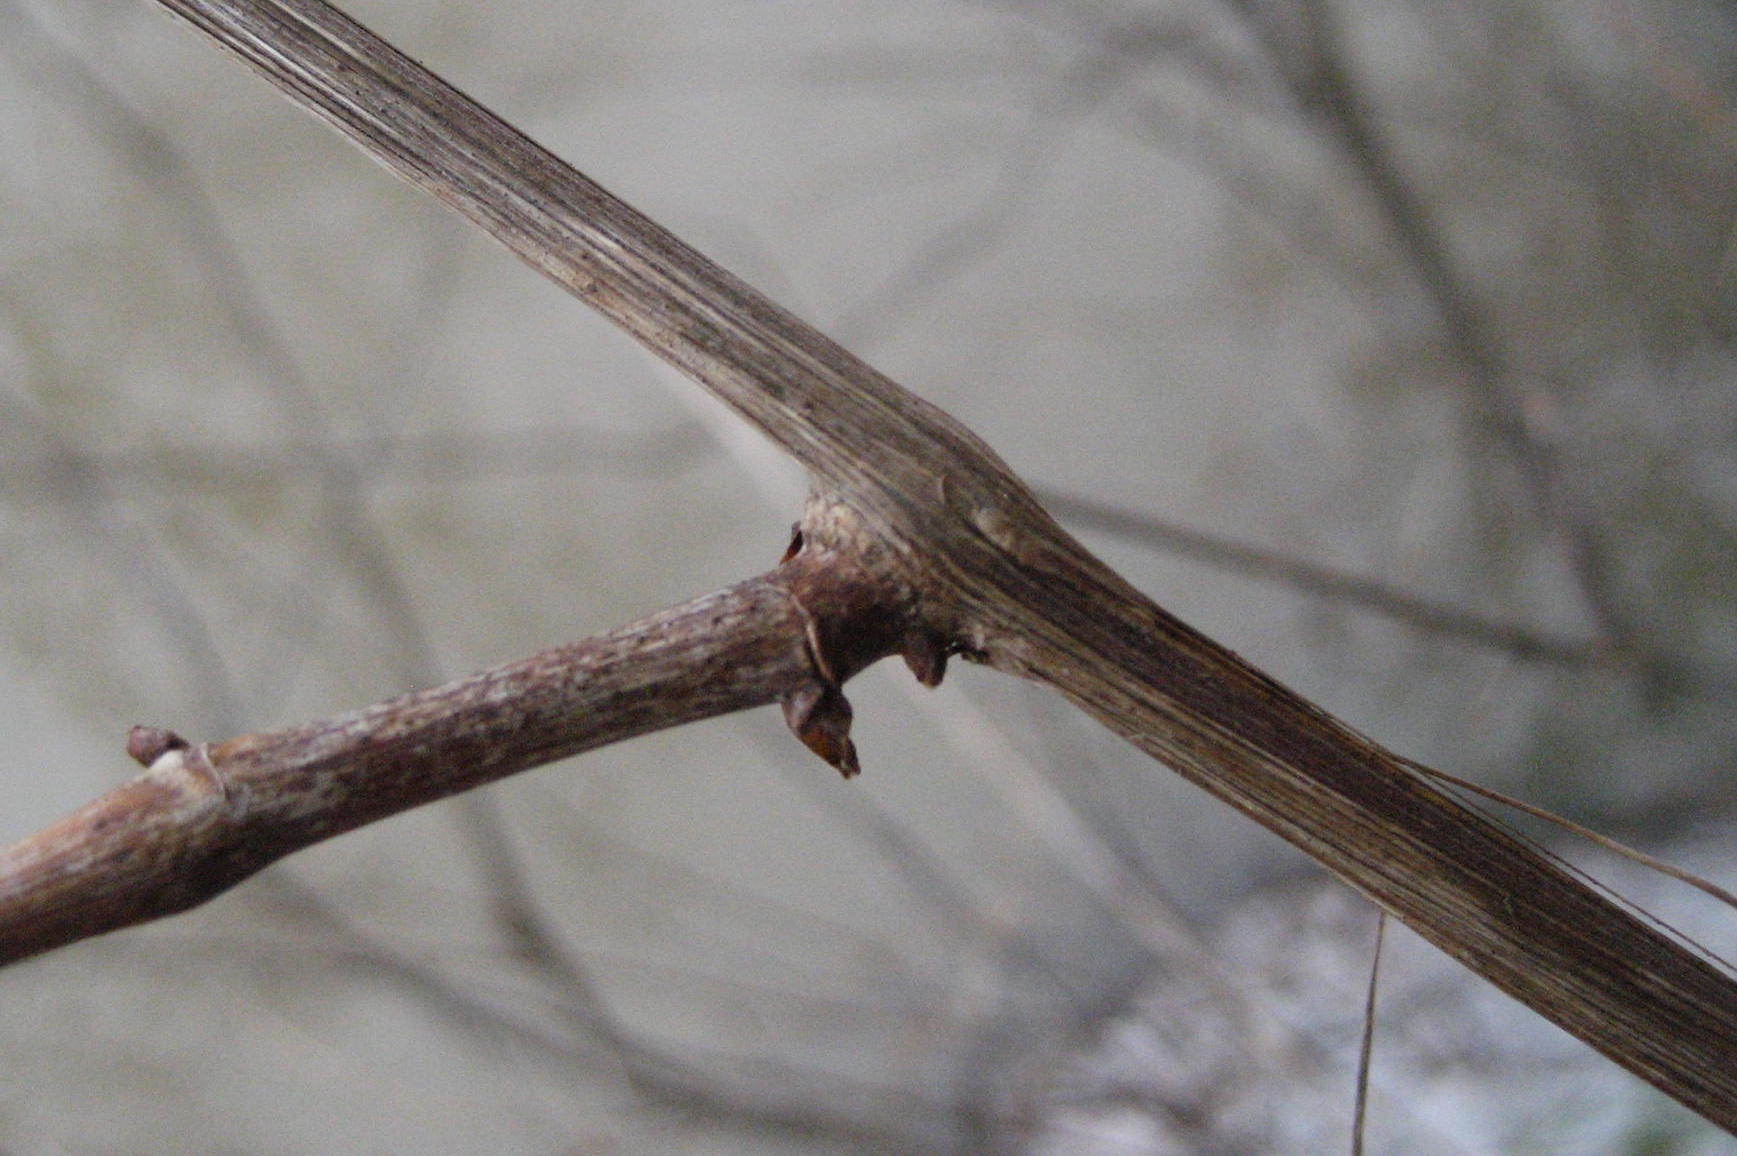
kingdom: Plantae
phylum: Tracheophyta
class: Magnoliopsida
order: Vitales
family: Vitaceae
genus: Vitis
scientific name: Vitis riparia
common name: Frost grape
